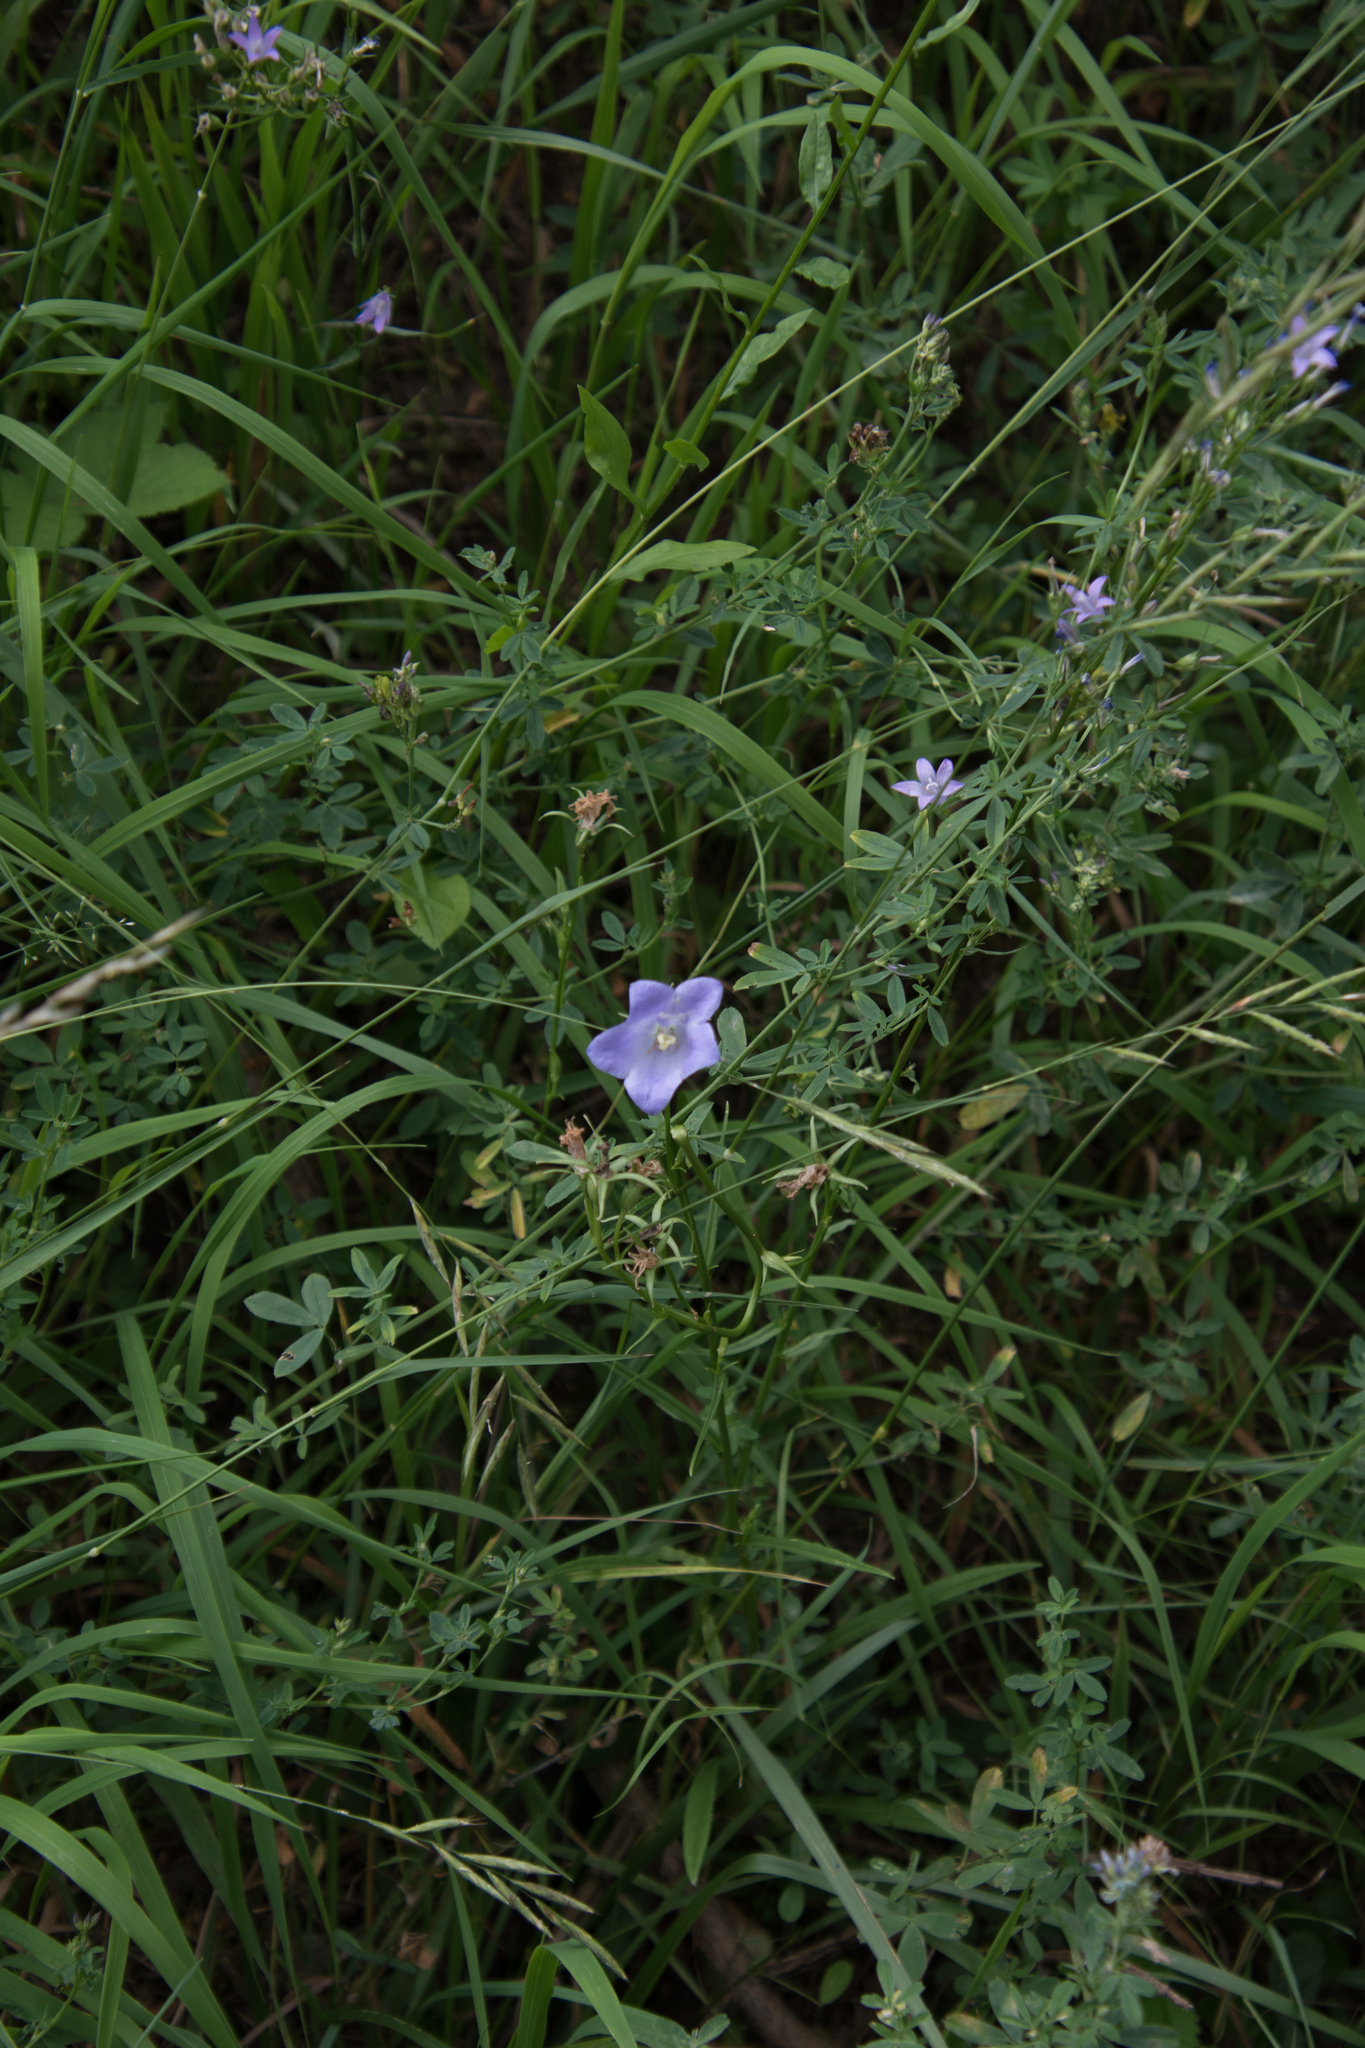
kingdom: Plantae
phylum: Tracheophyta
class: Magnoliopsida
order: Asterales
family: Campanulaceae
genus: Campanula
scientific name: Campanula rotundifolia
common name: Harebell
